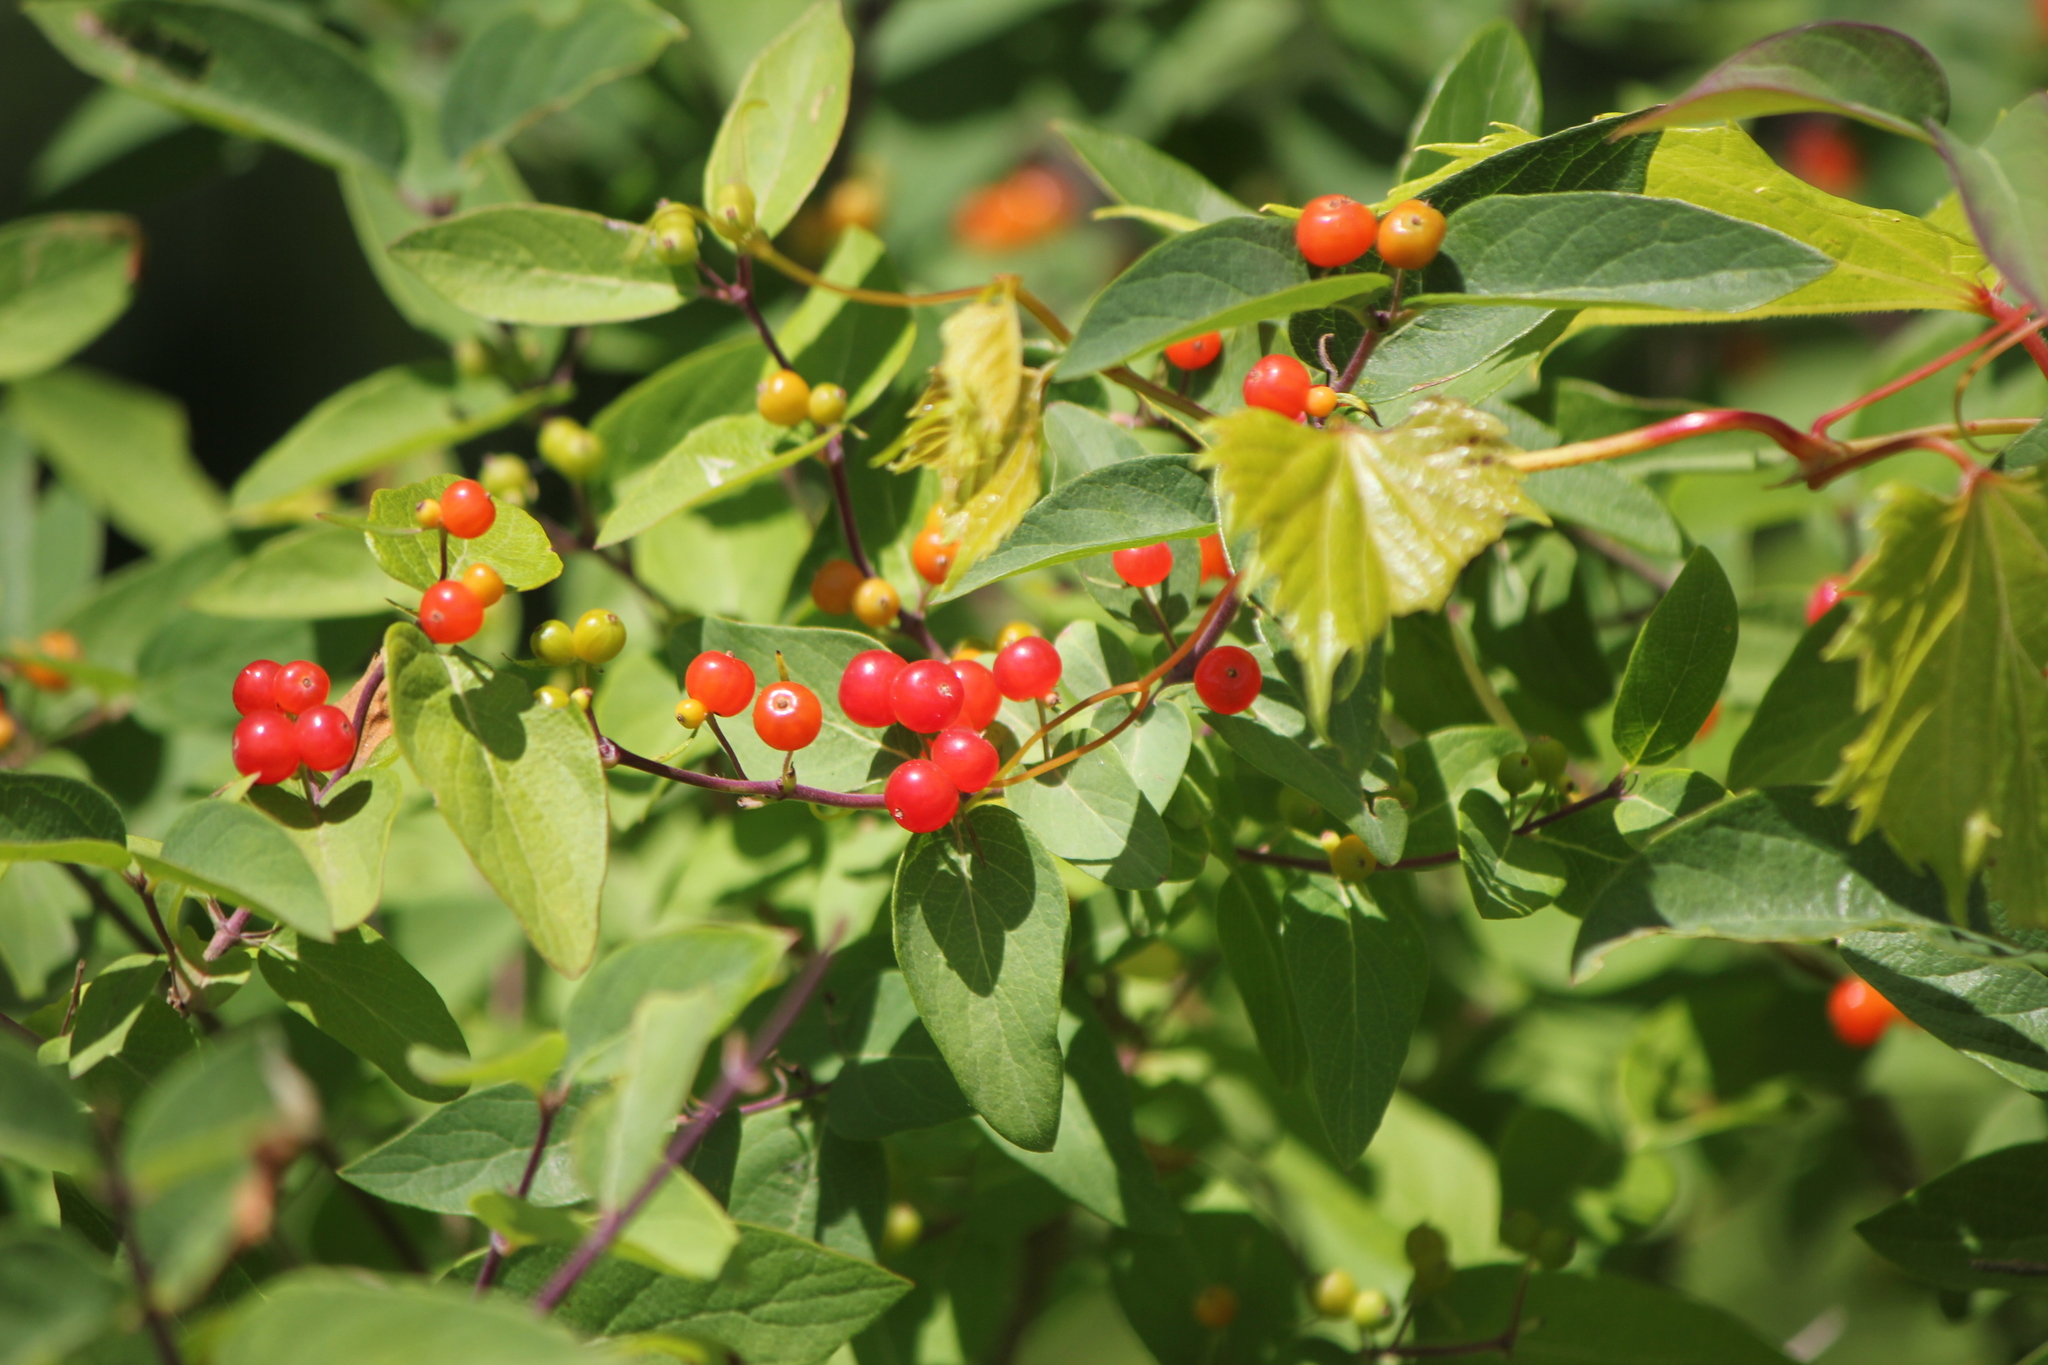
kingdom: Plantae
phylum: Tracheophyta
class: Magnoliopsida
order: Dipsacales
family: Caprifoliaceae
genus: Lonicera
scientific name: Lonicera tatarica
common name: Tatarian honeysuckle
